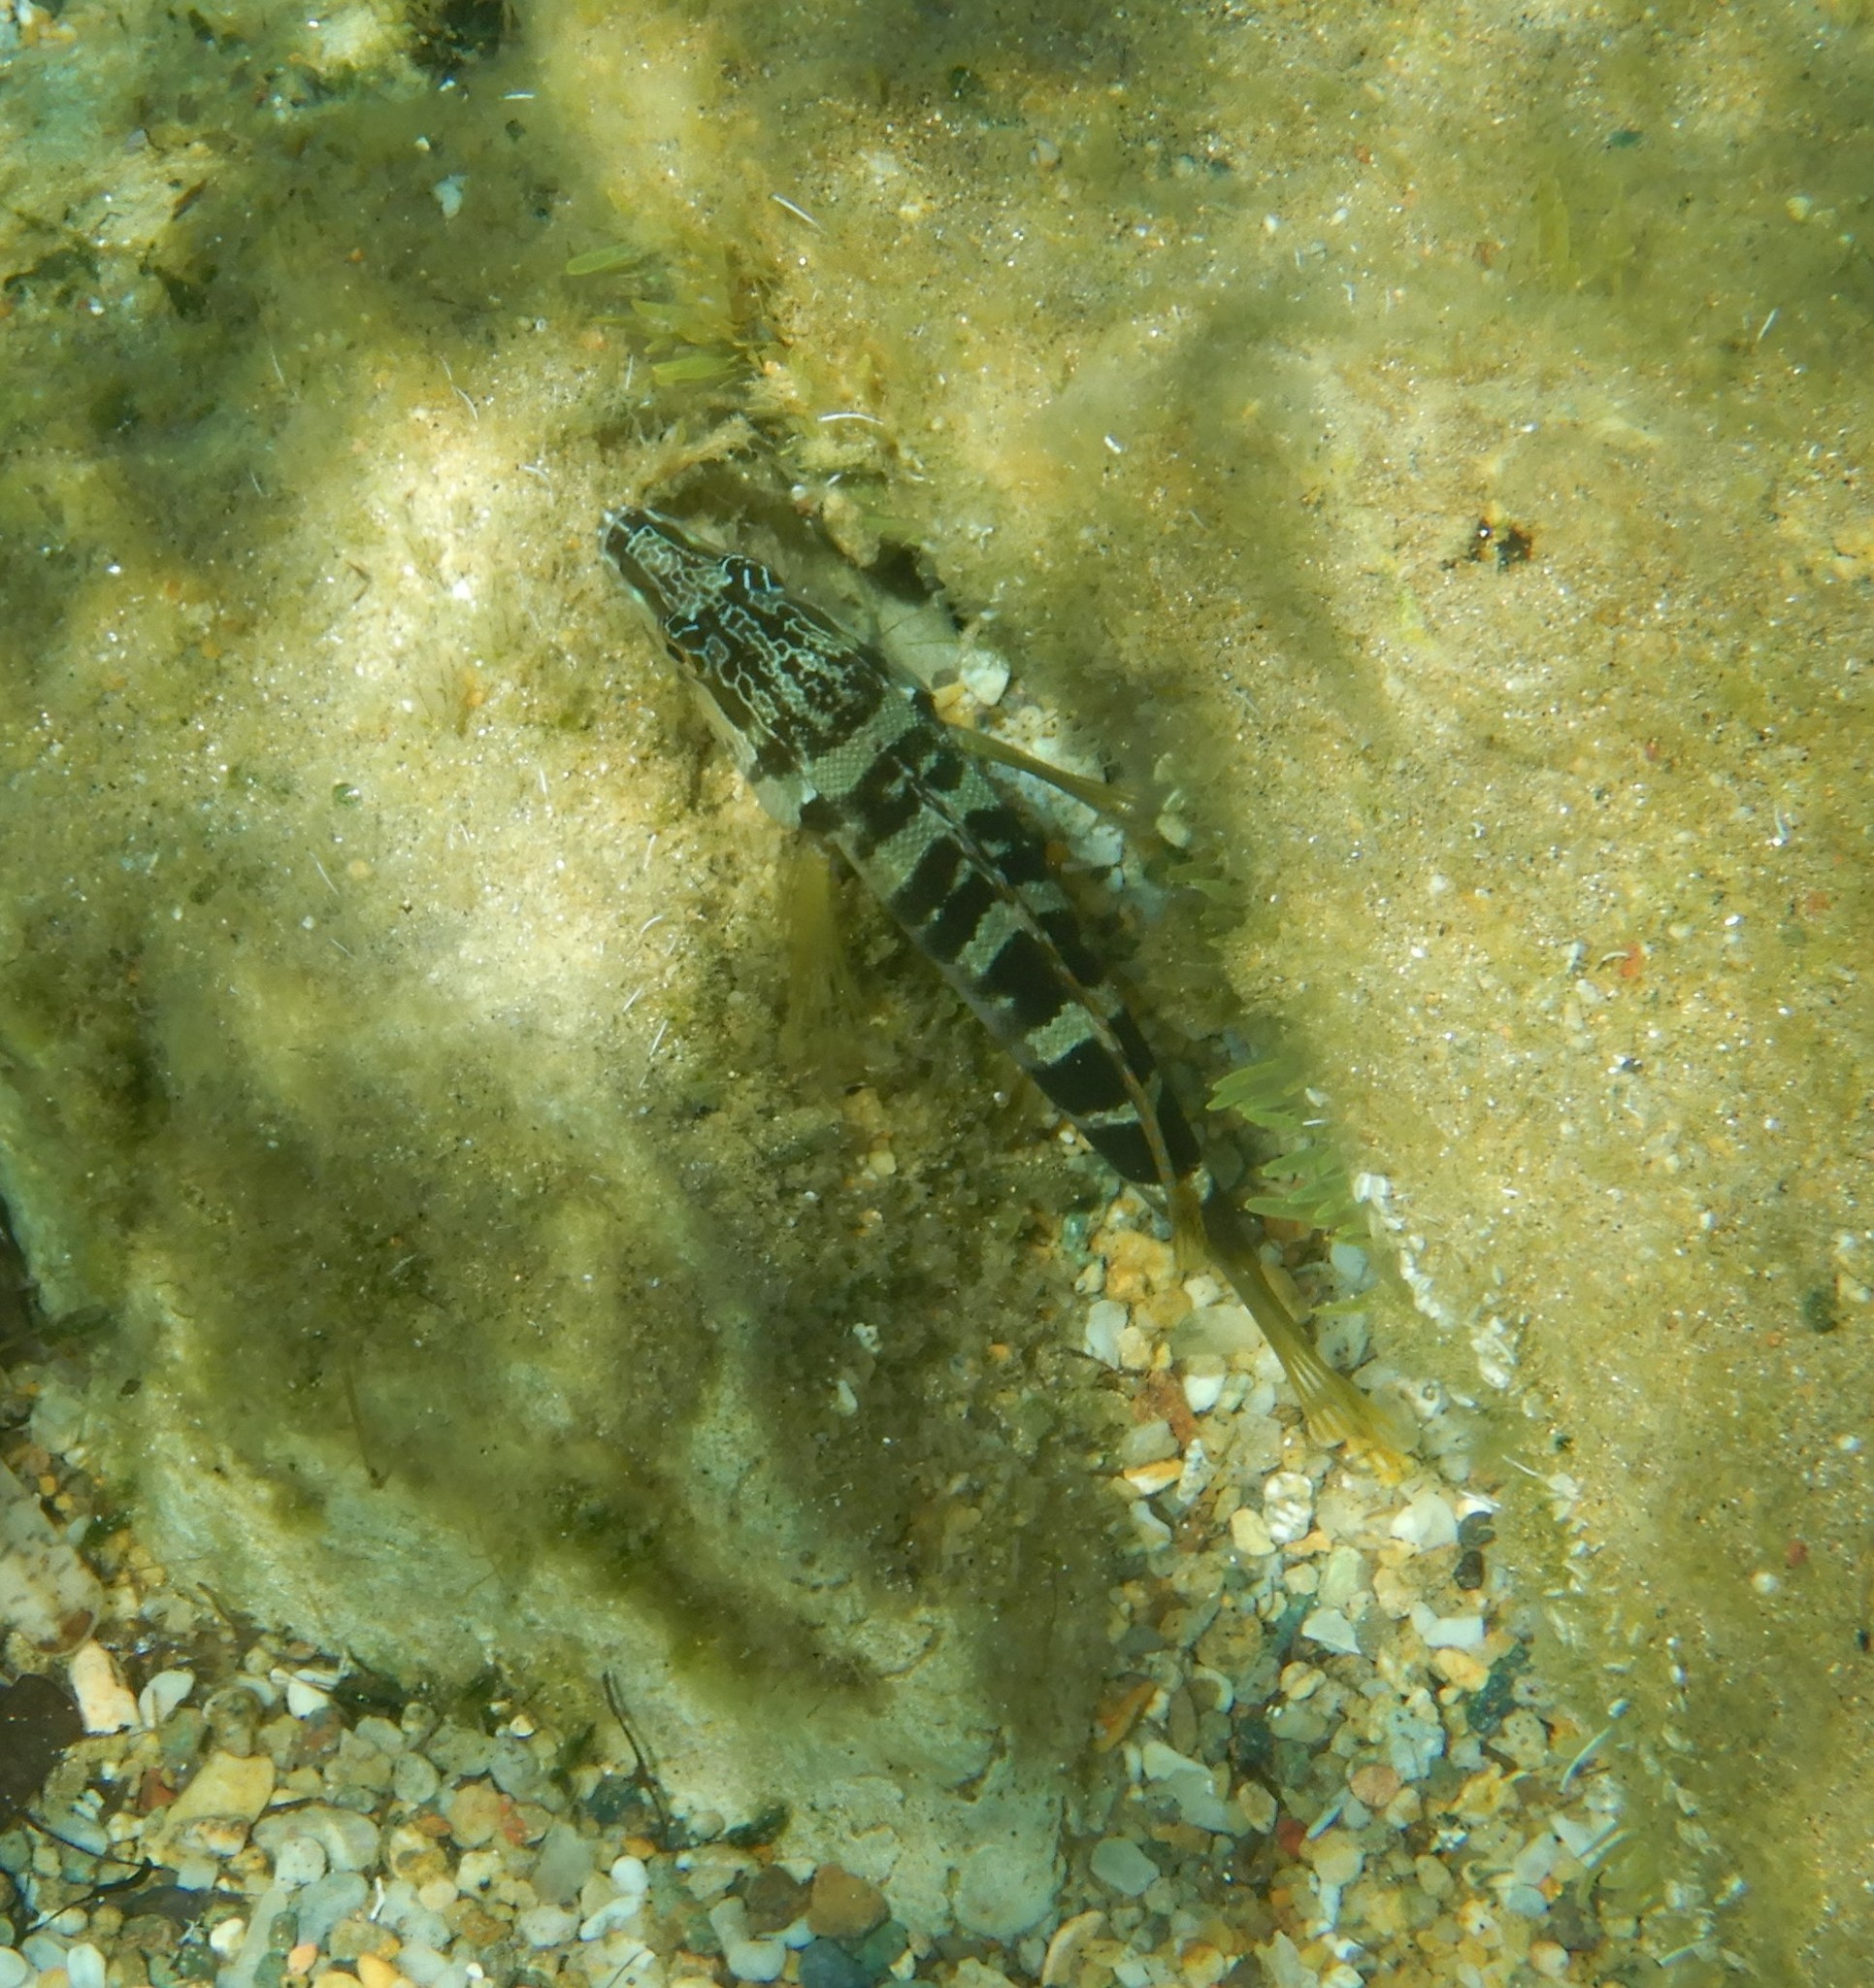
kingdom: Animalia
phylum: Chordata
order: Perciformes
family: Serranidae
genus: Serranus
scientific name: Serranus scriba
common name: Painted comber
